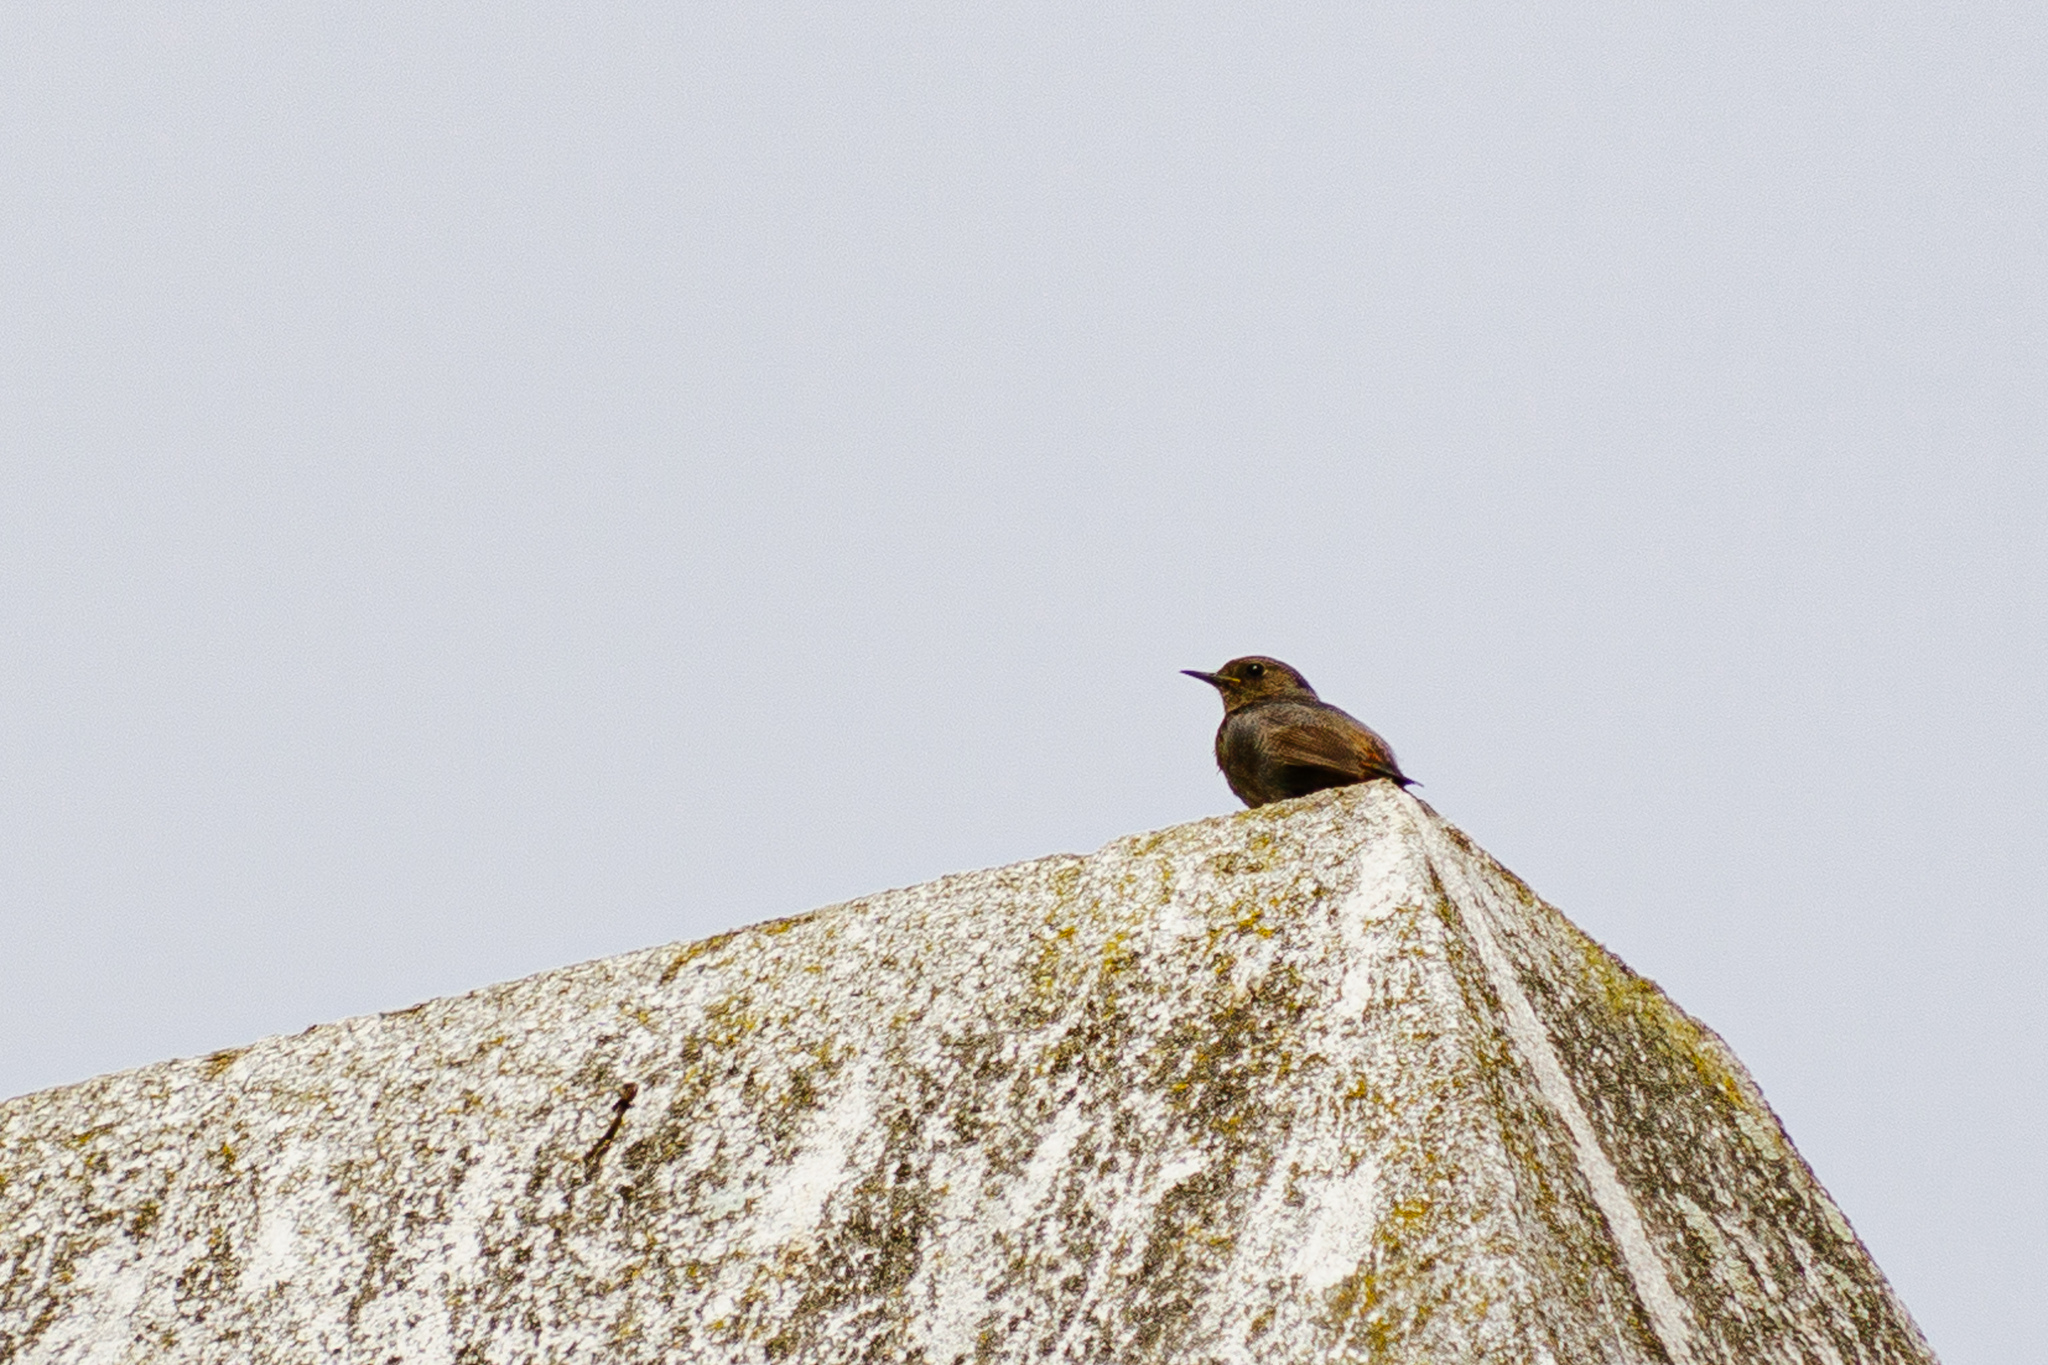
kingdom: Animalia
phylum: Chordata
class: Aves
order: Passeriformes
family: Muscicapidae
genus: Phoenicurus
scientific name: Phoenicurus ochruros
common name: Black redstart
